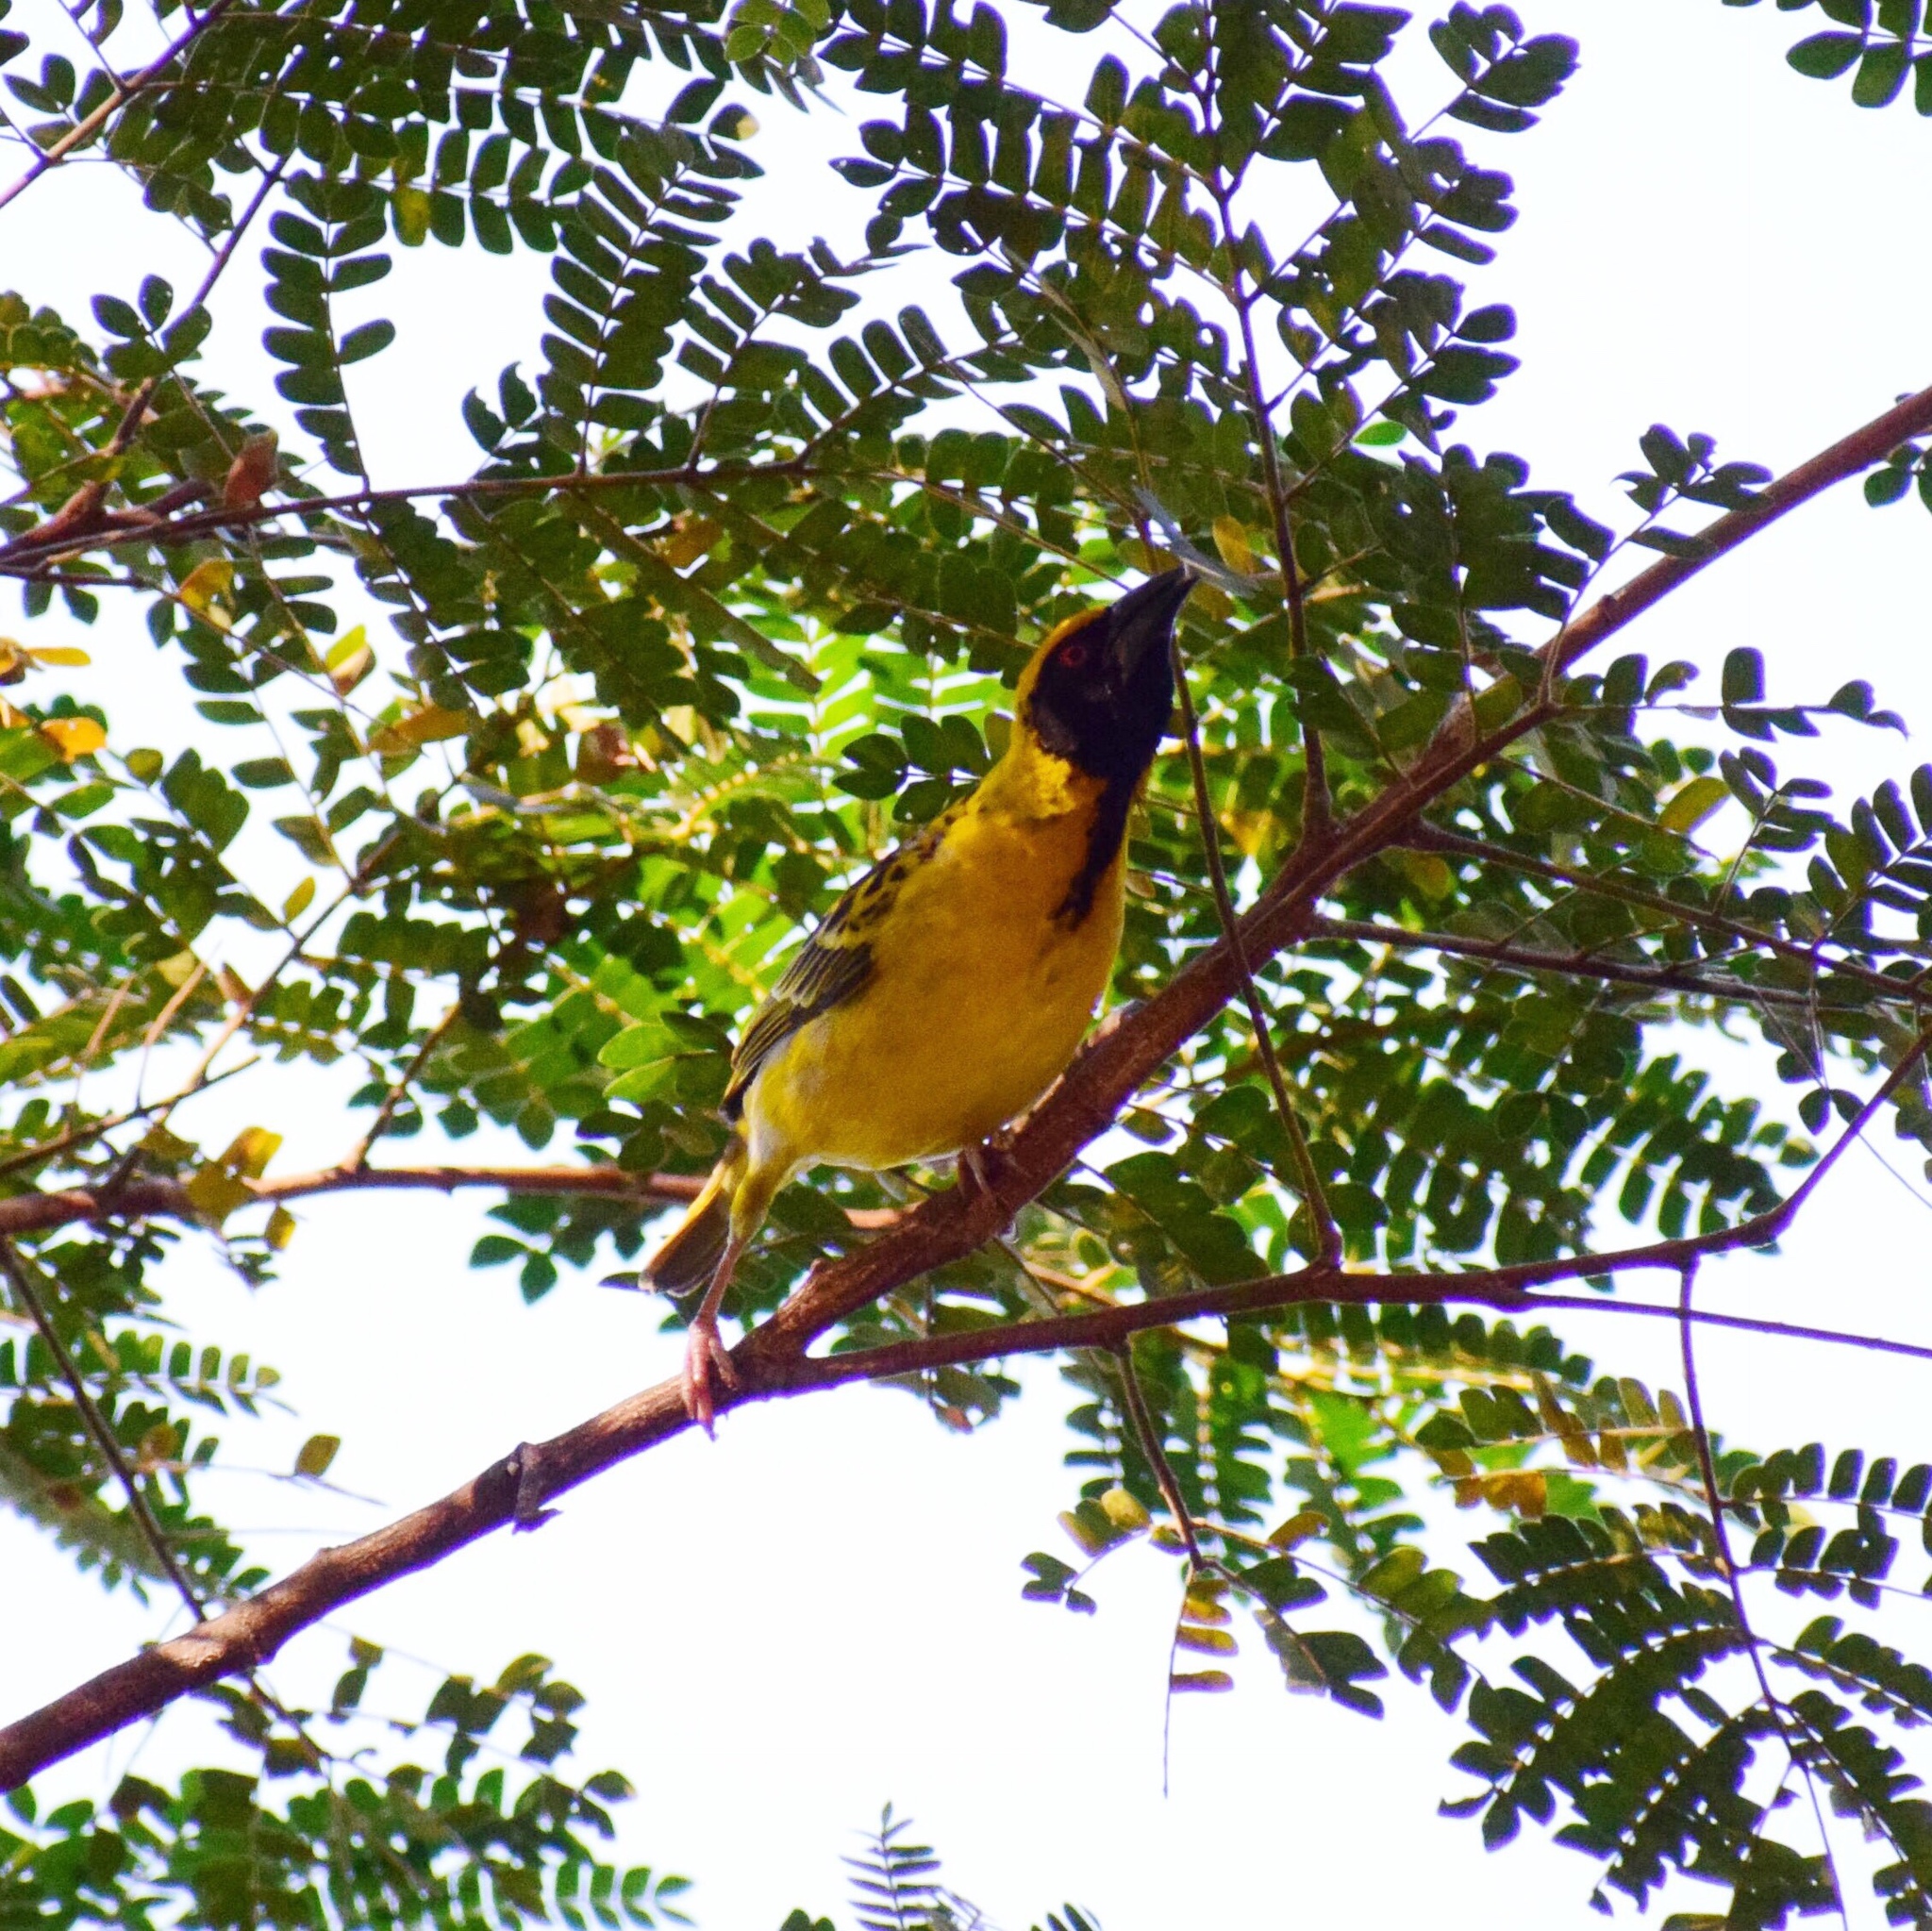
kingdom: Animalia
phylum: Chordata
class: Aves
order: Passeriformes
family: Ploceidae
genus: Ploceus
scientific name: Ploceus cucullatus
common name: Village weaver
